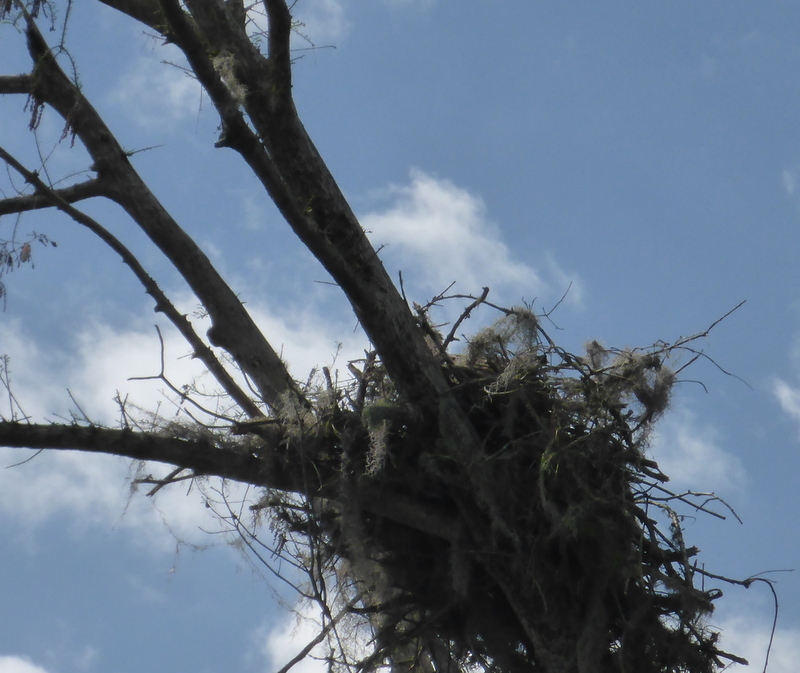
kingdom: Animalia
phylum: Chordata
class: Aves
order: Accipitriformes
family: Pandionidae
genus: Pandion
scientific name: Pandion haliaetus
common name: Osprey
